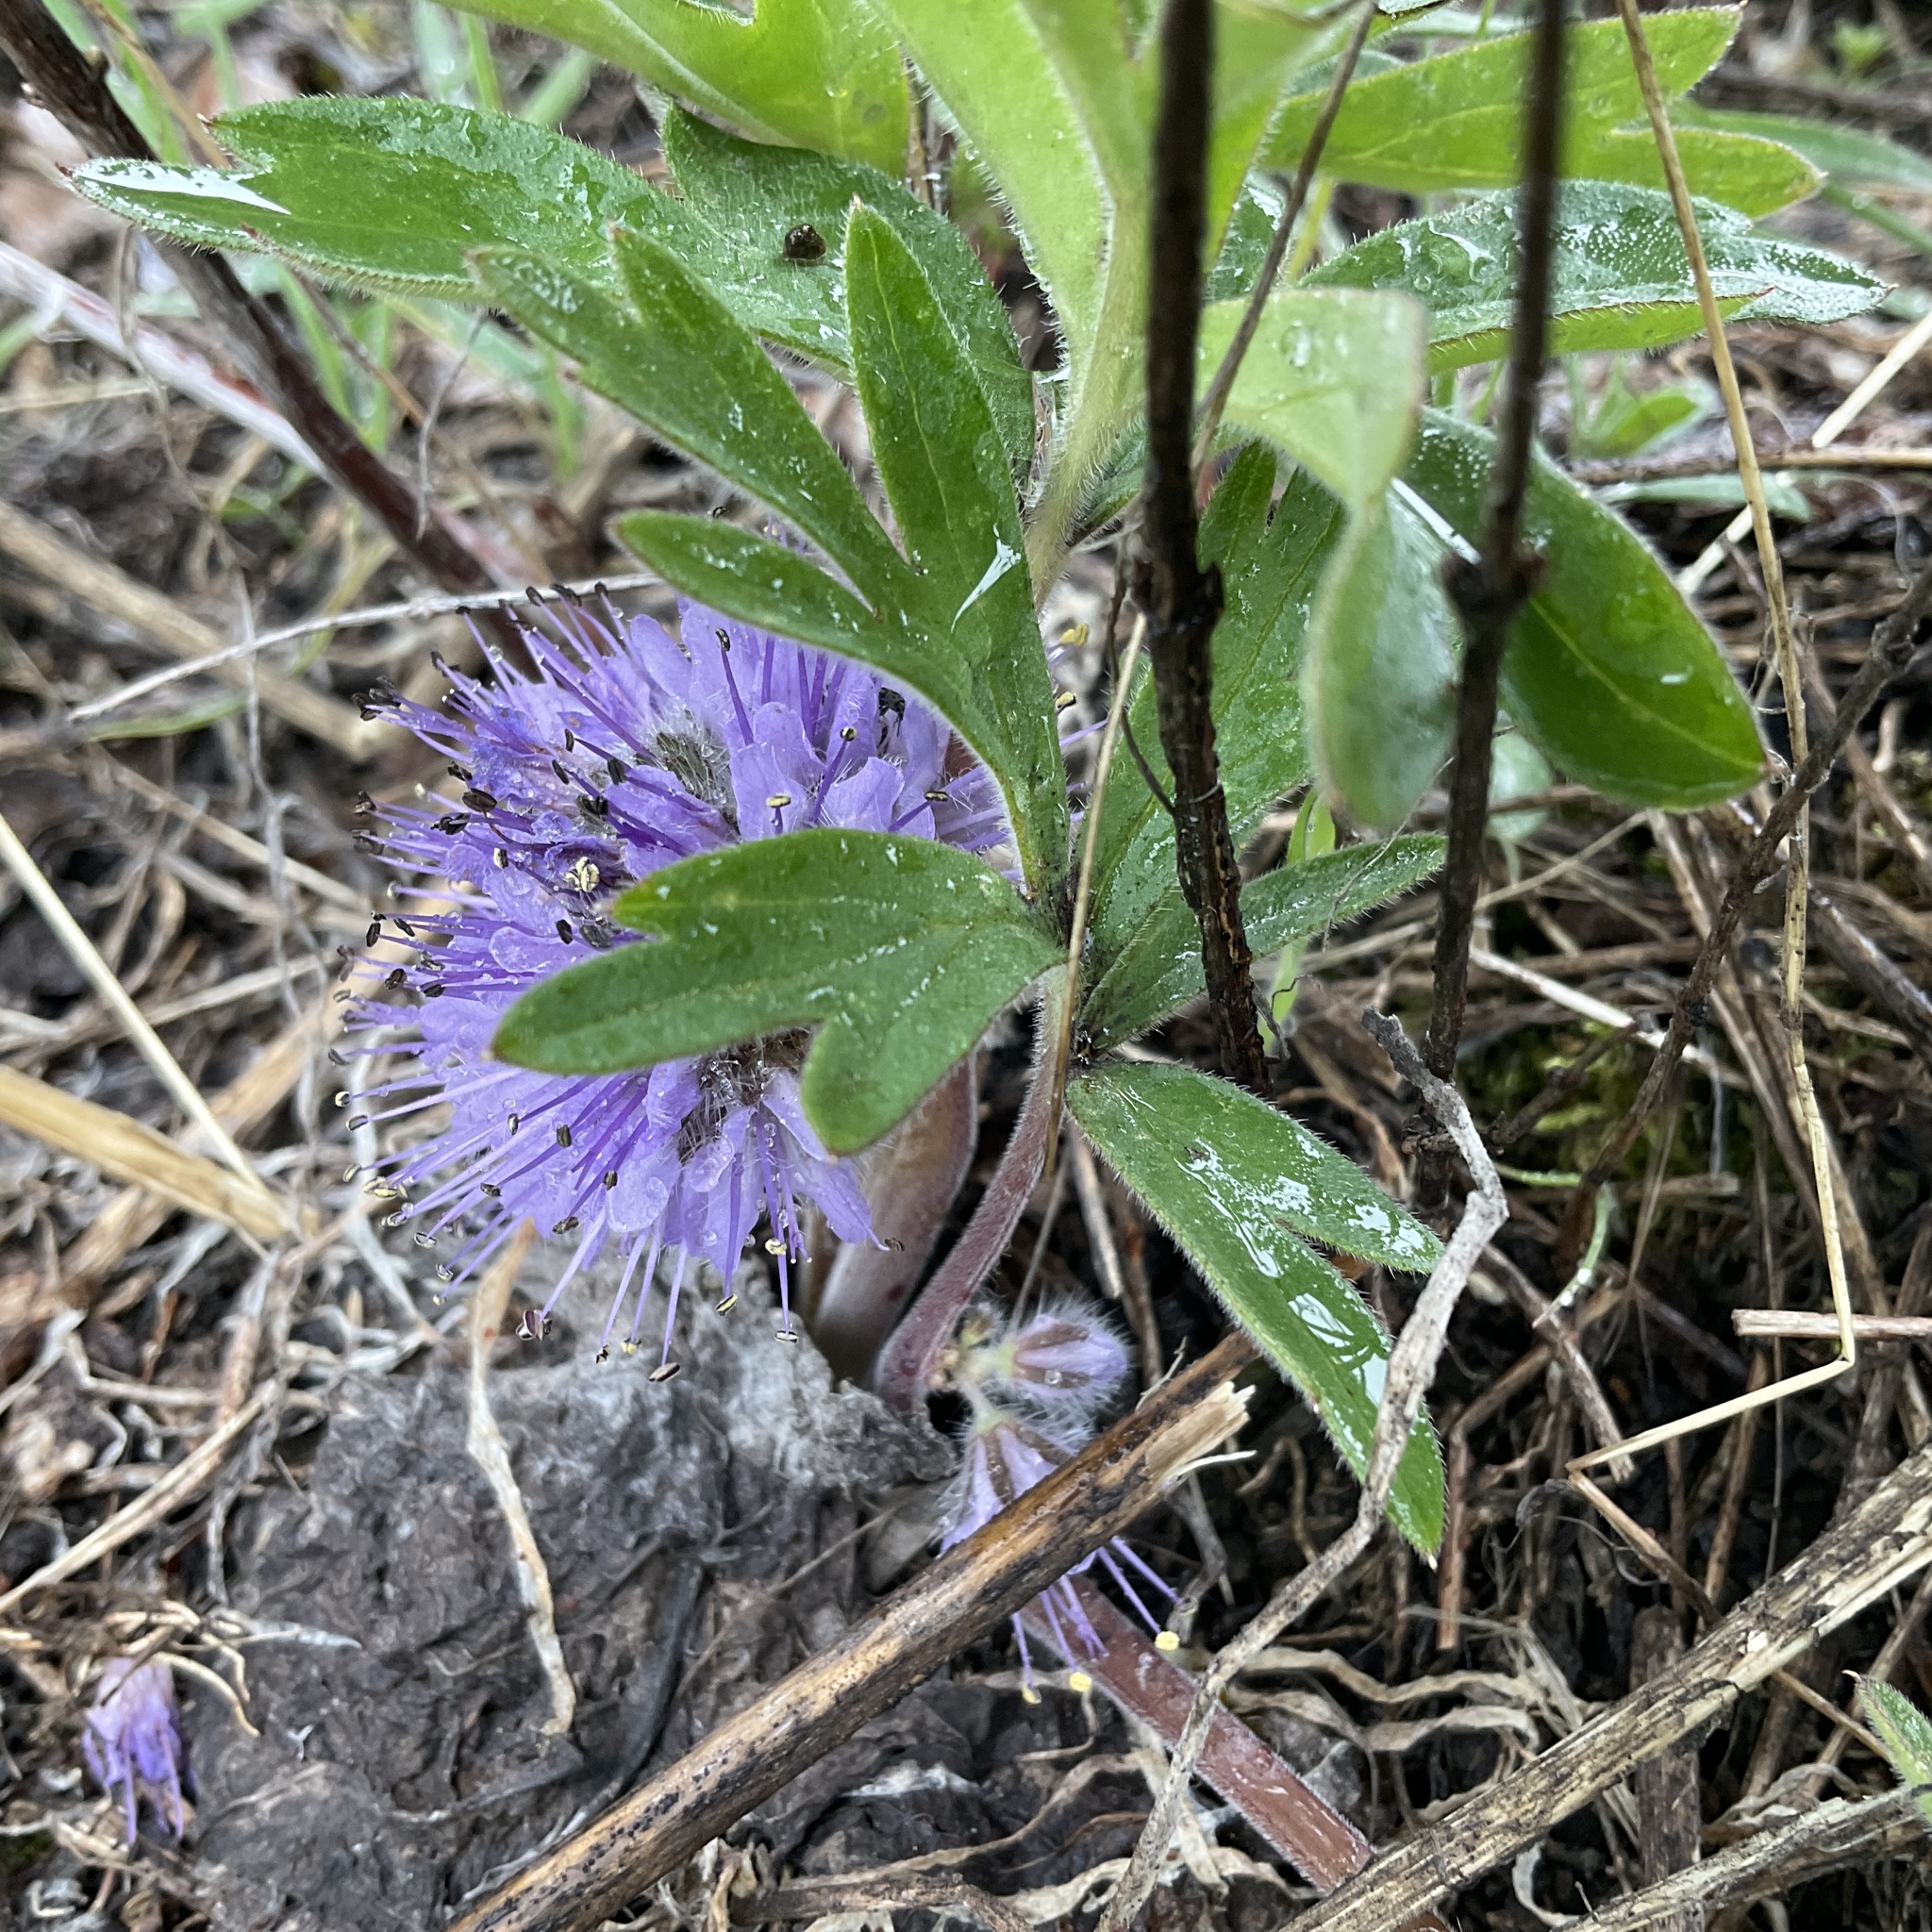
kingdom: Plantae
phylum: Tracheophyta
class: Magnoliopsida
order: Boraginales
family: Hydrophyllaceae
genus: Hydrophyllum
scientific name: Hydrophyllum capitatum
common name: Woollen-breeches
